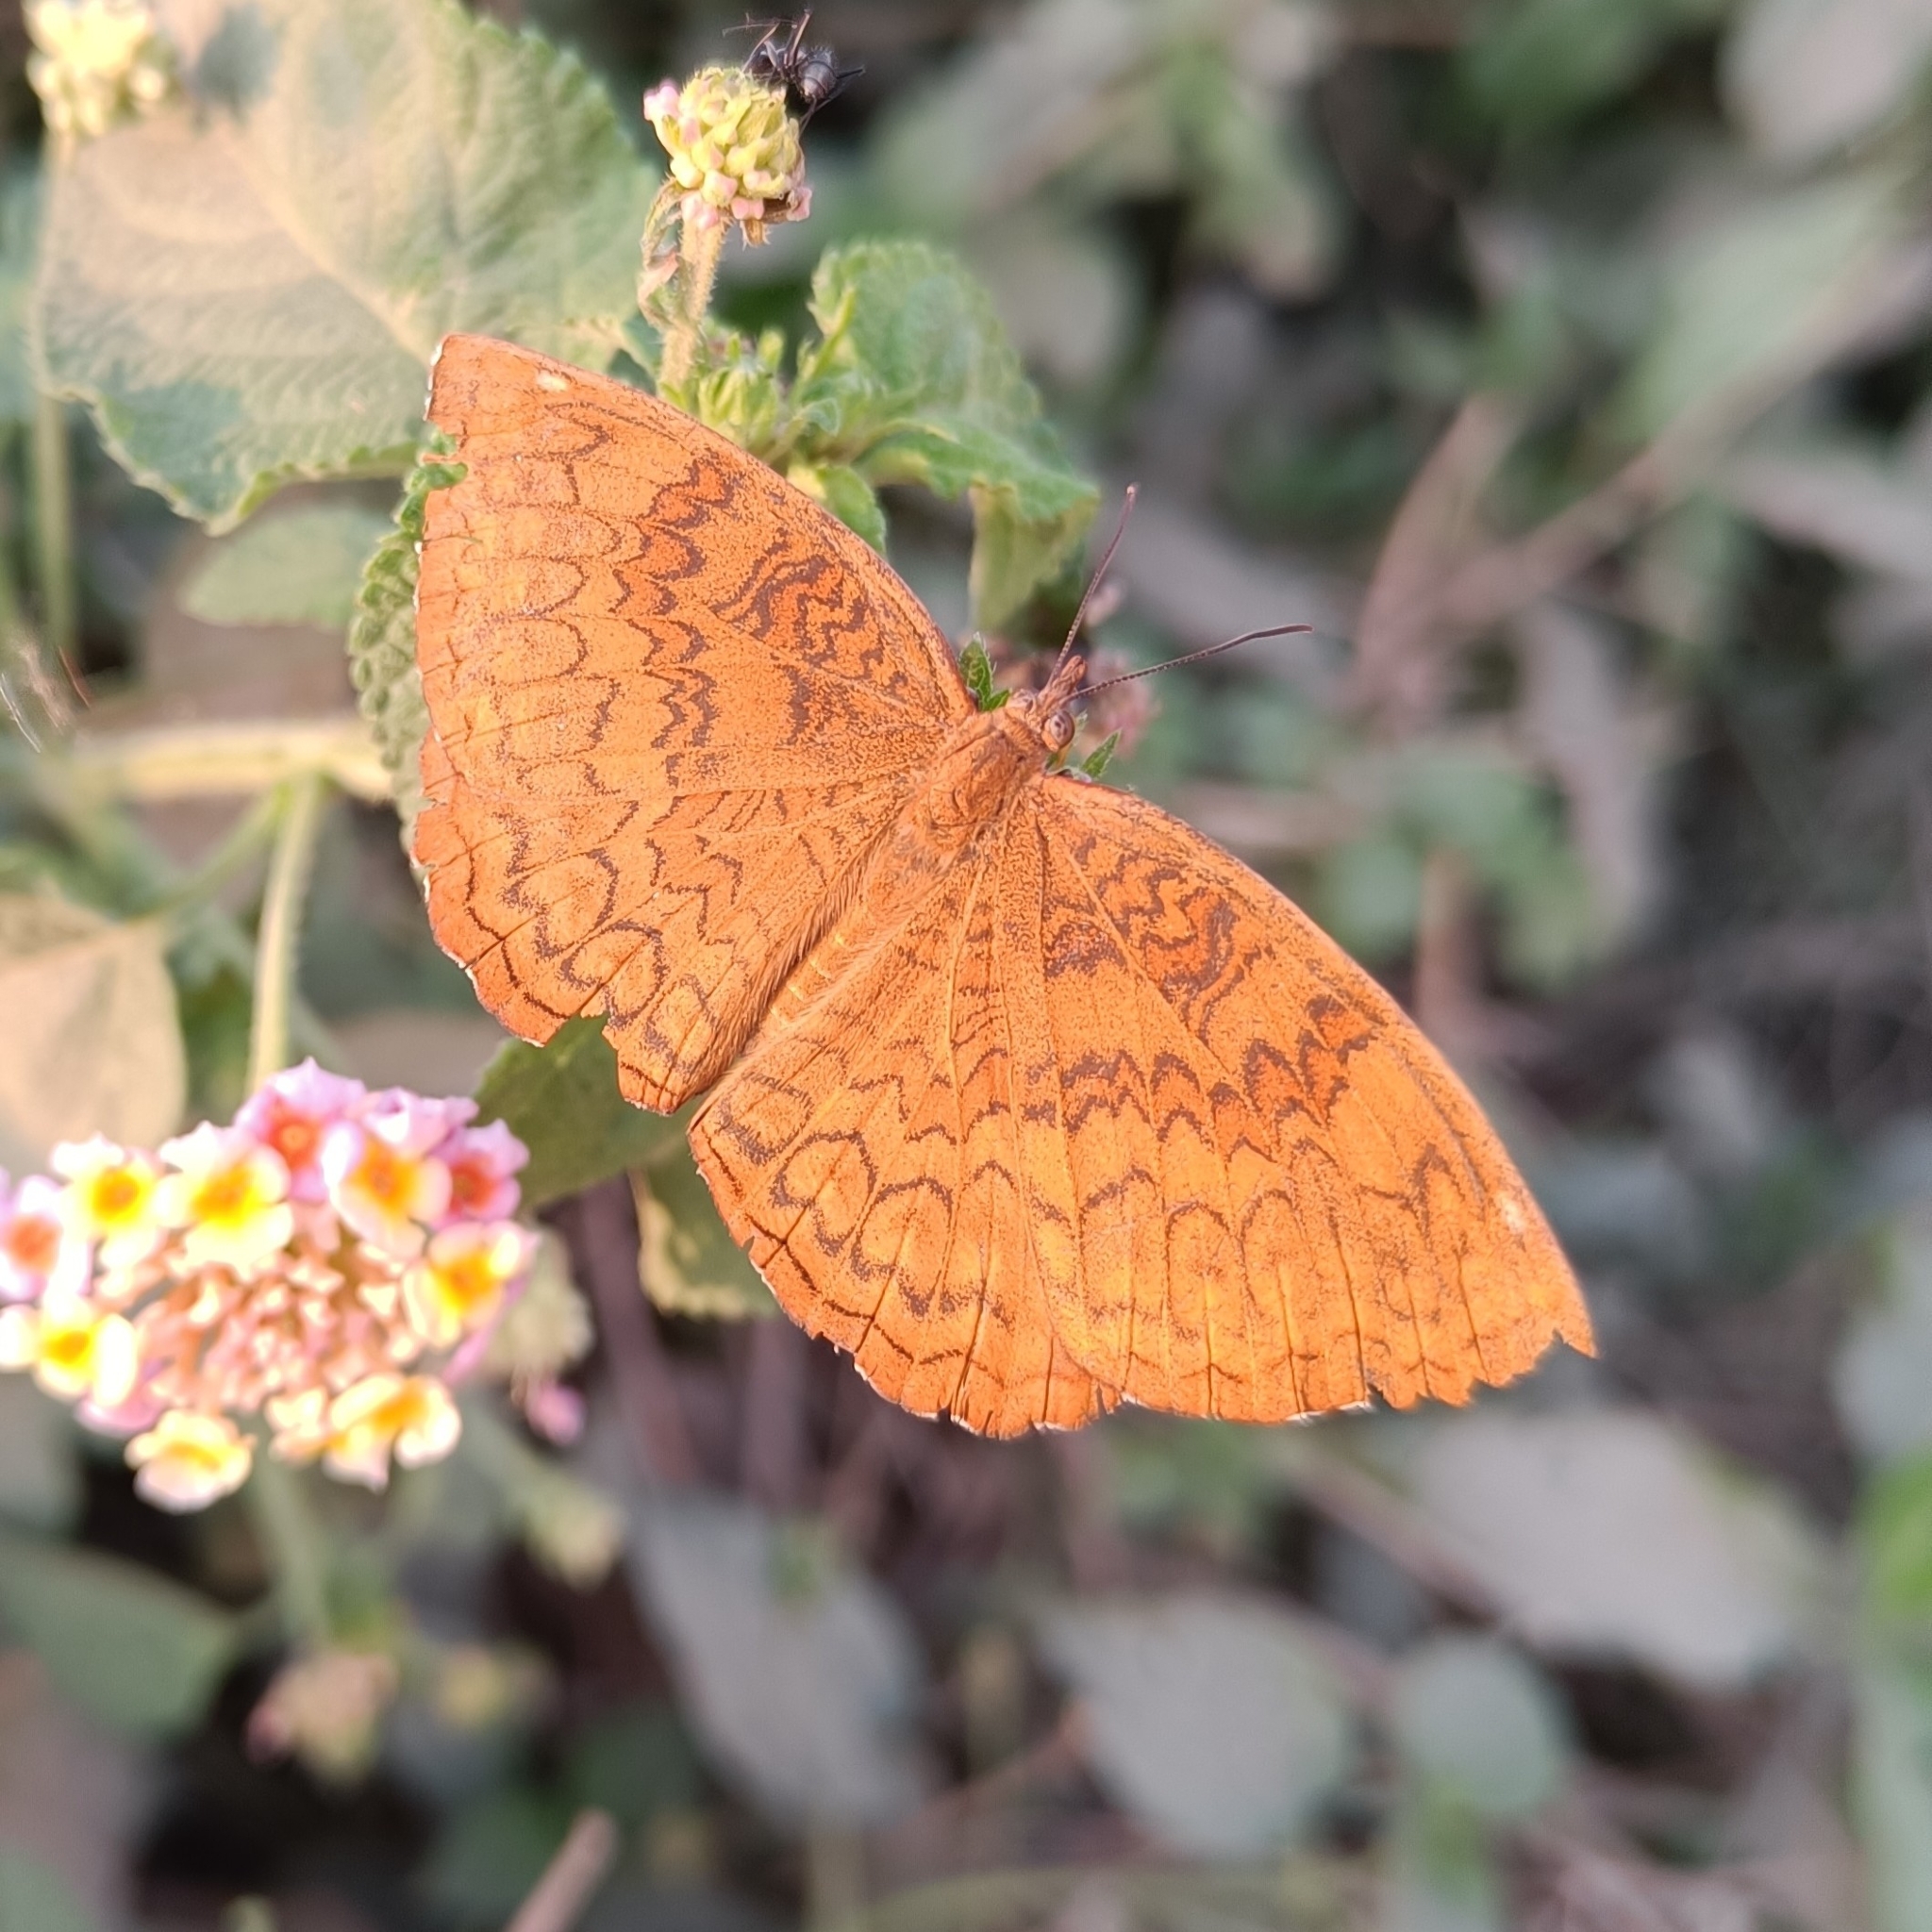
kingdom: Animalia
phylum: Arthropoda
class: Insecta
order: Lepidoptera
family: Nymphalidae
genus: Ariadne
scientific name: Ariadne merione
